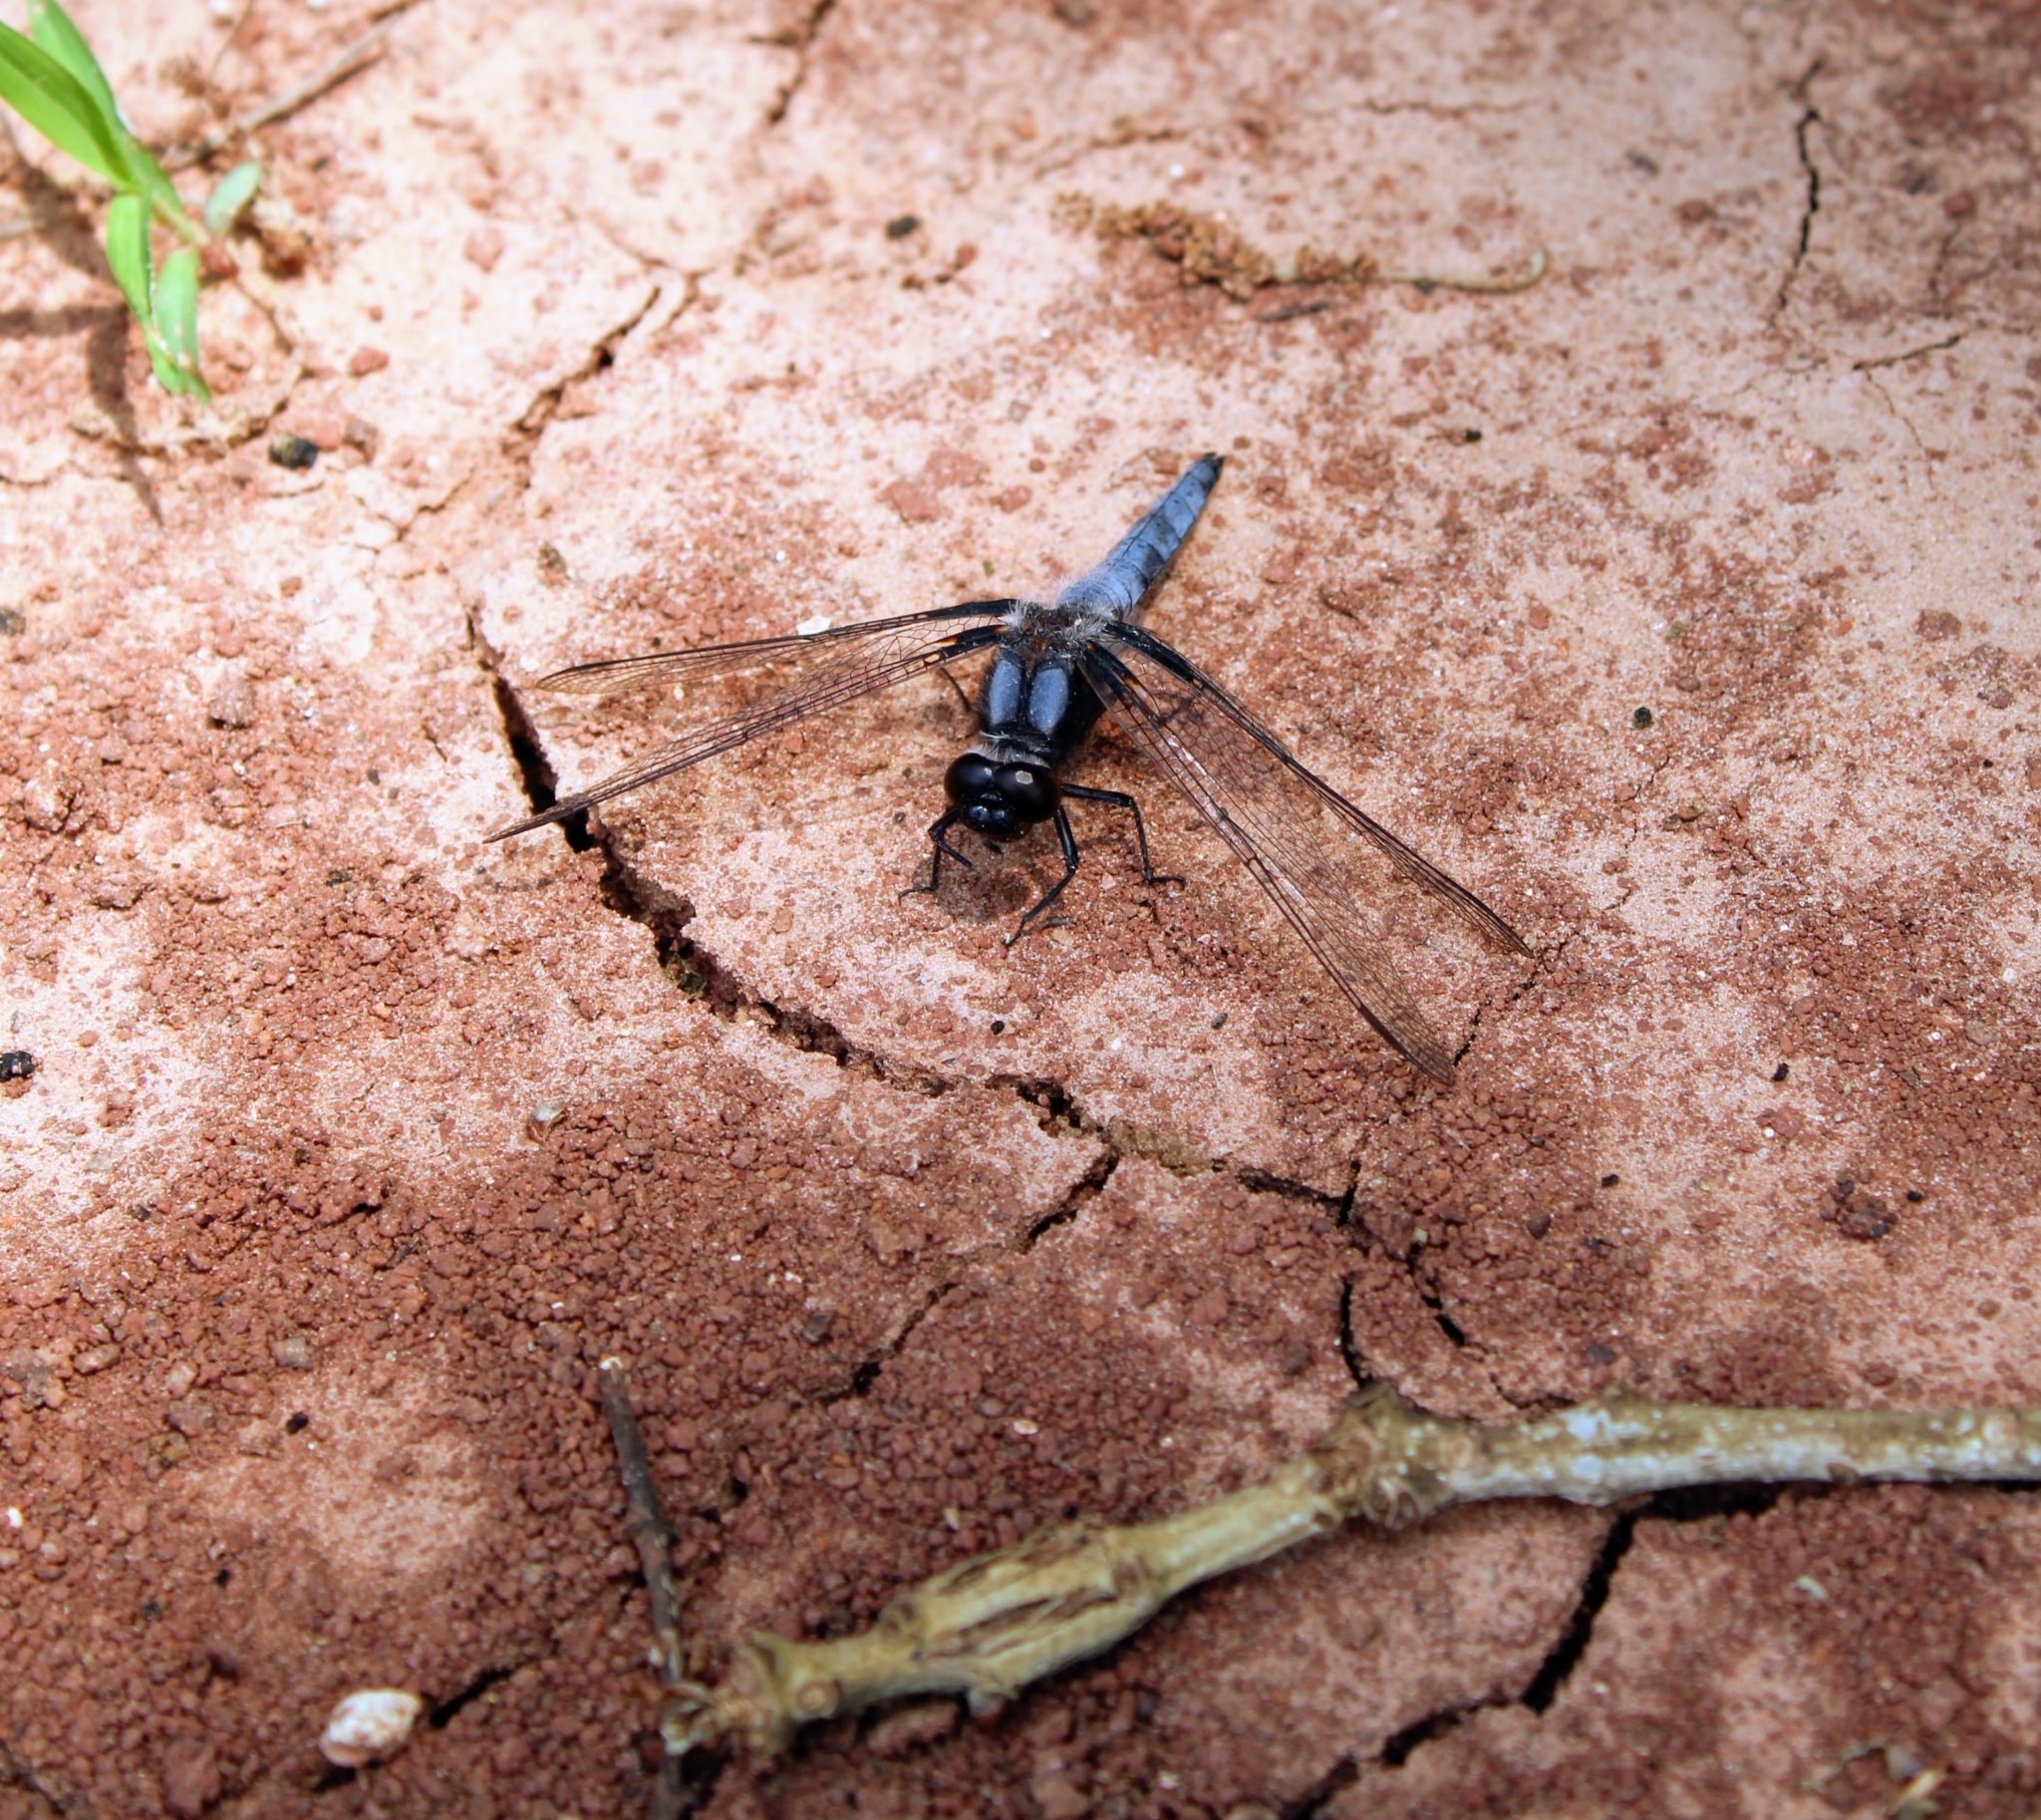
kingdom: Animalia
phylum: Arthropoda
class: Insecta
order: Odonata
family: Libellulidae
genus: Ladona
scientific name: Ladona deplanata
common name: Blue corporal
